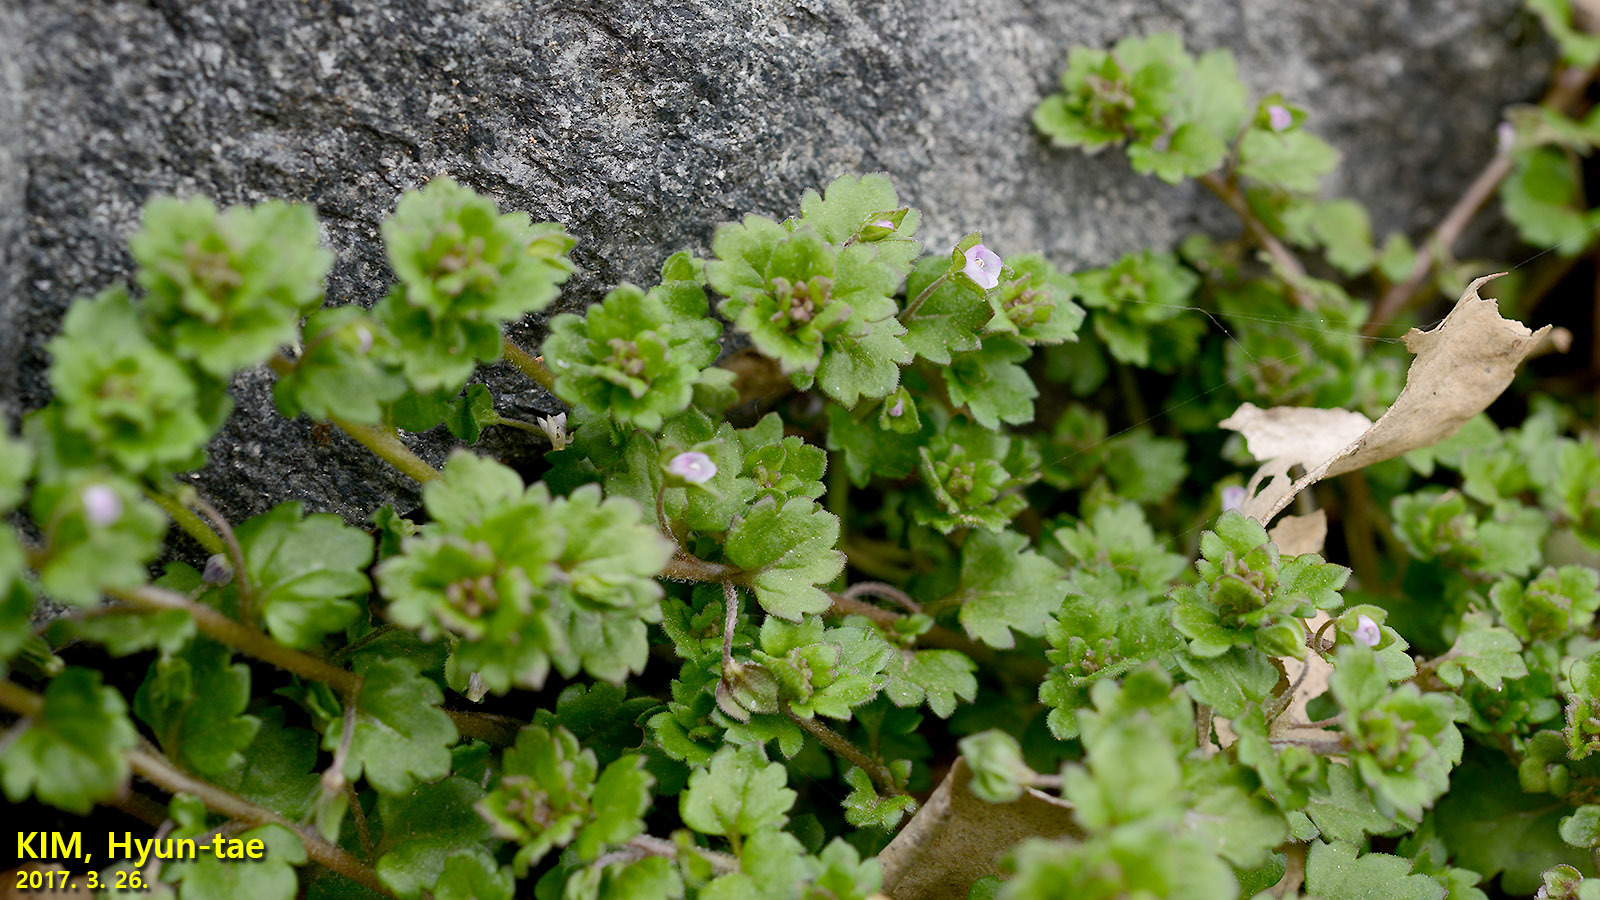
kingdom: Plantae
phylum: Tracheophyta
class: Magnoliopsida
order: Lamiales
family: Plantaginaceae
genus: Veronica
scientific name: Veronica polita
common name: Grey field-speedwell
